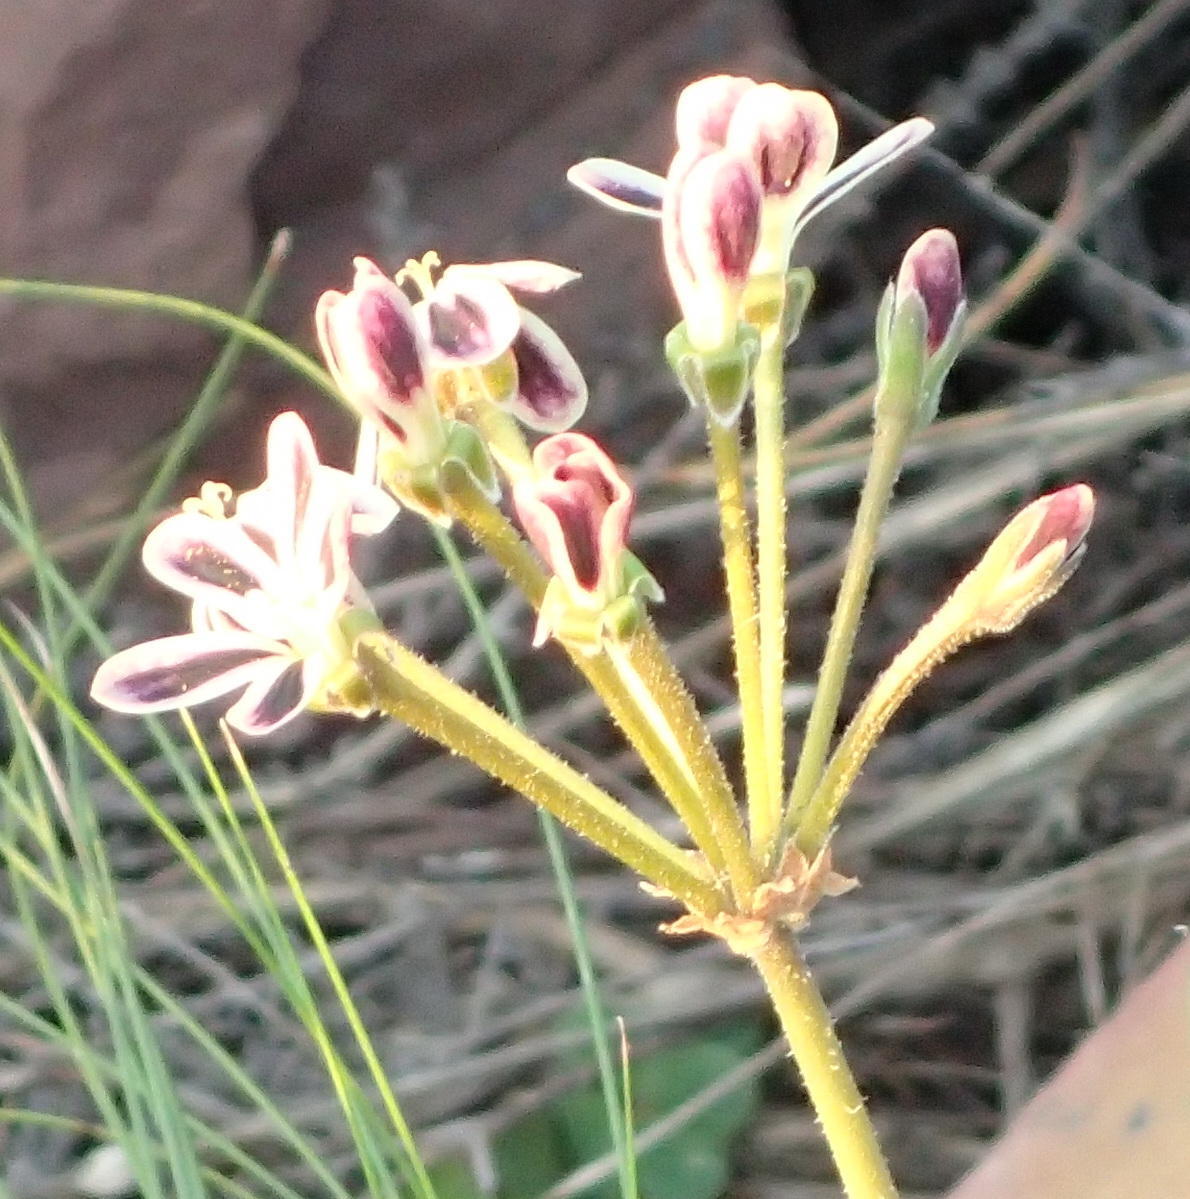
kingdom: Plantae
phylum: Tracheophyta
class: Magnoliopsida
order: Geraniales
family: Geraniaceae
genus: Pelargonium
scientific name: Pelargonium triste
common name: Night-scent pelargonium
